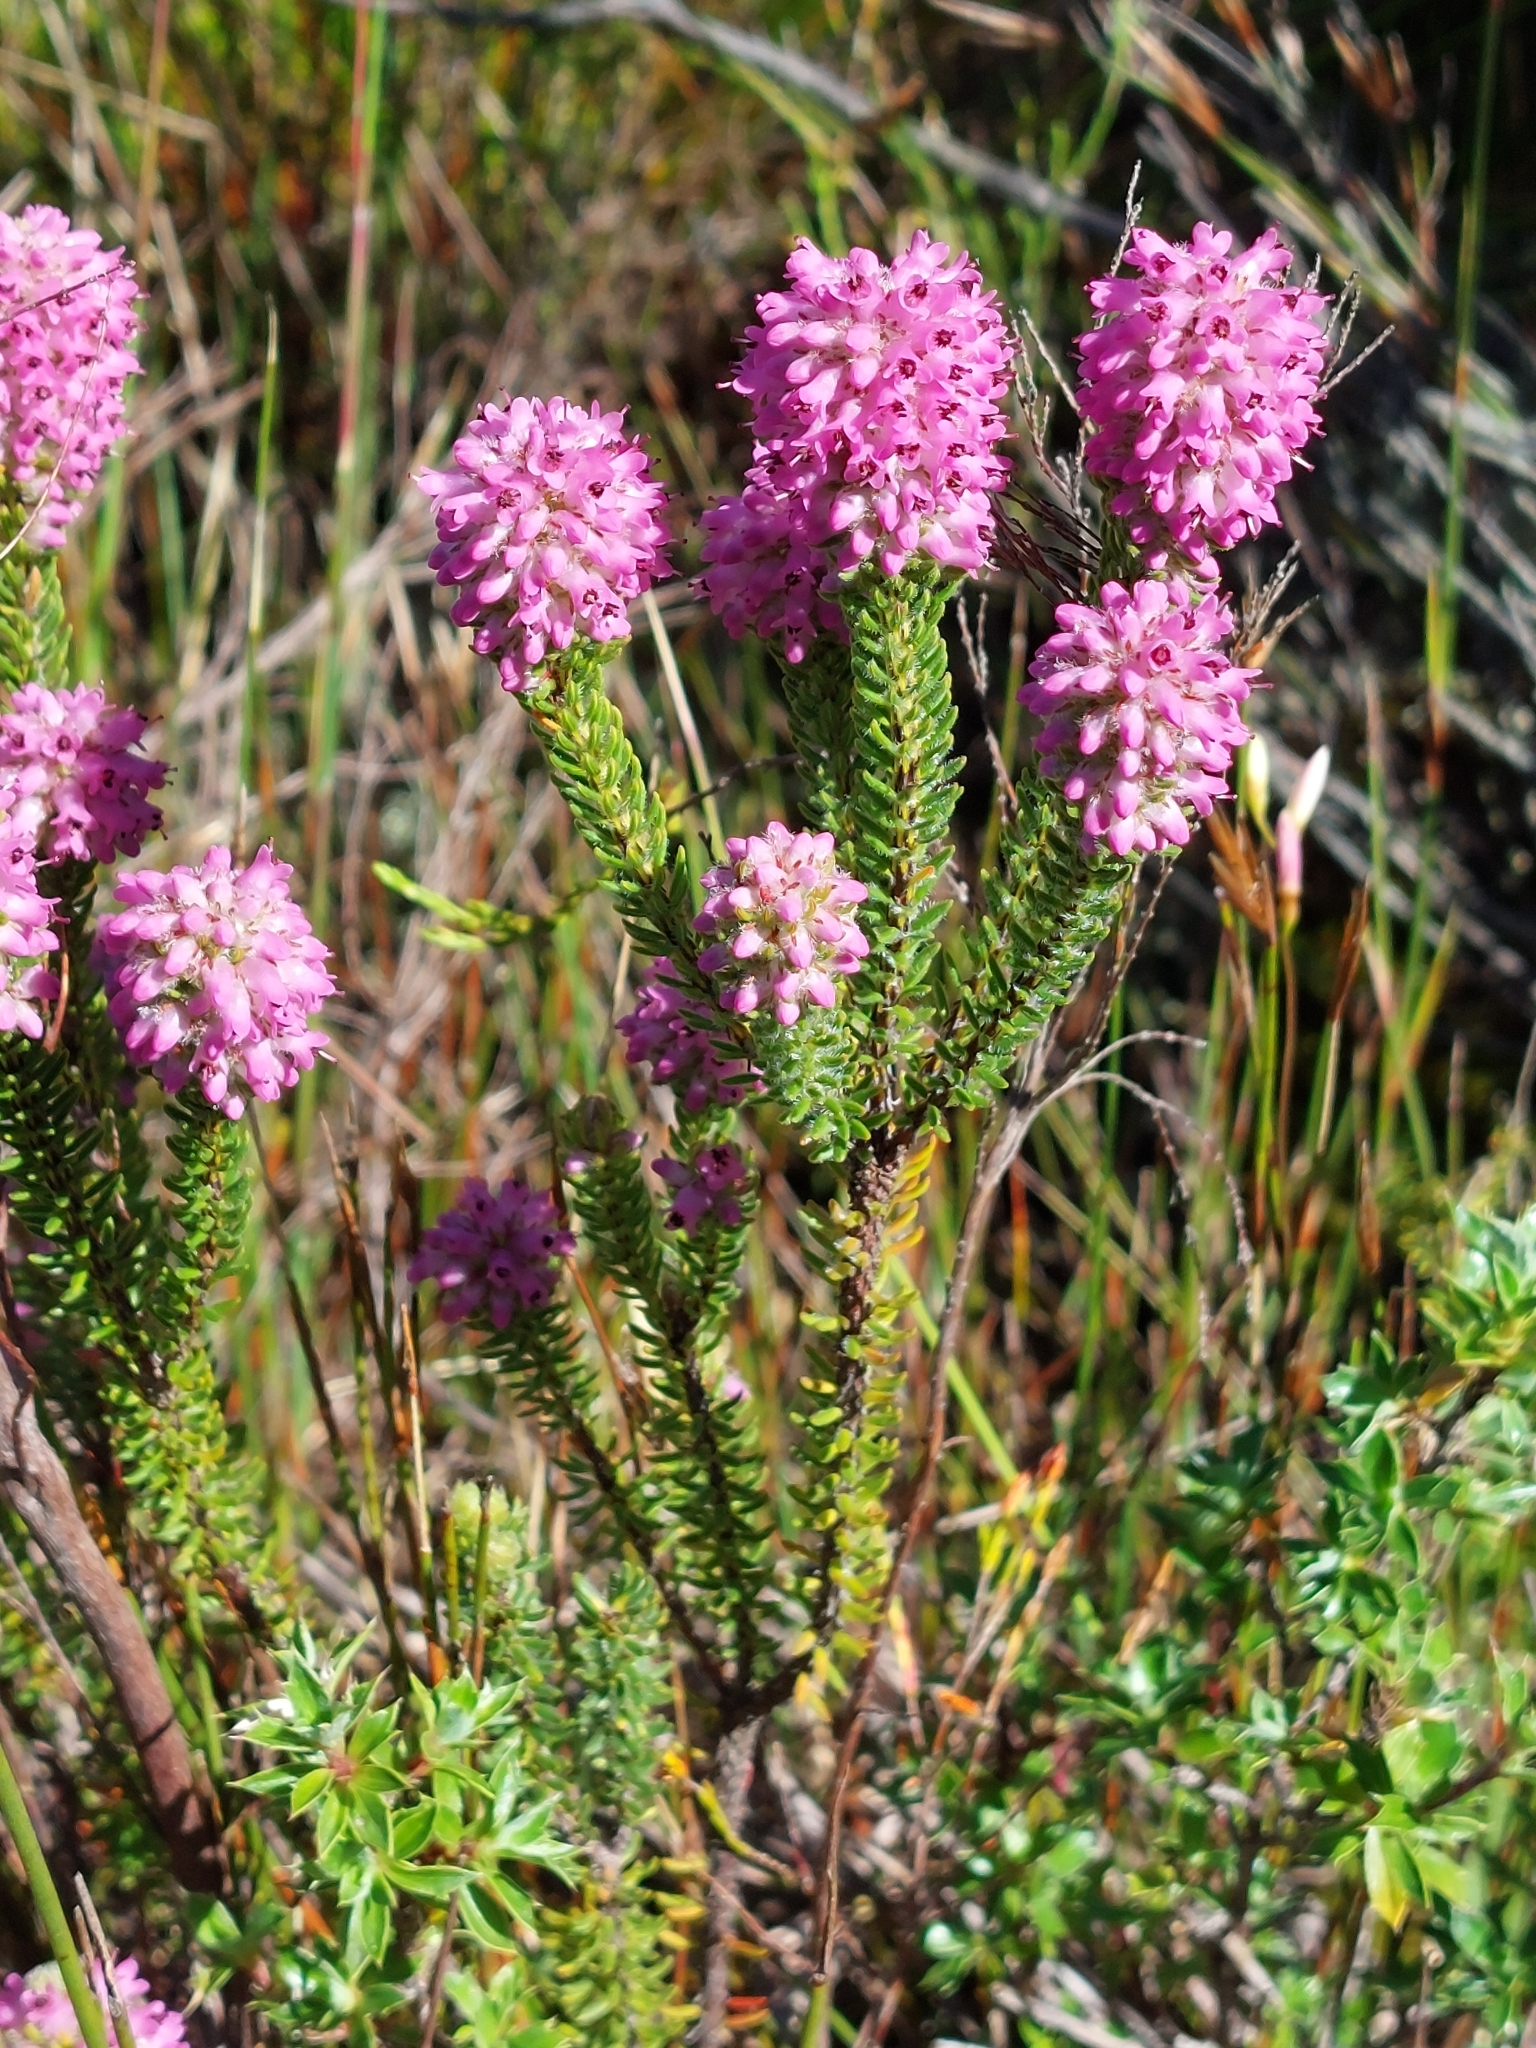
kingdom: Plantae
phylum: Tracheophyta
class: Magnoliopsida
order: Ericales
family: Ericaceae
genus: Erica
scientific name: Erica empetrina
